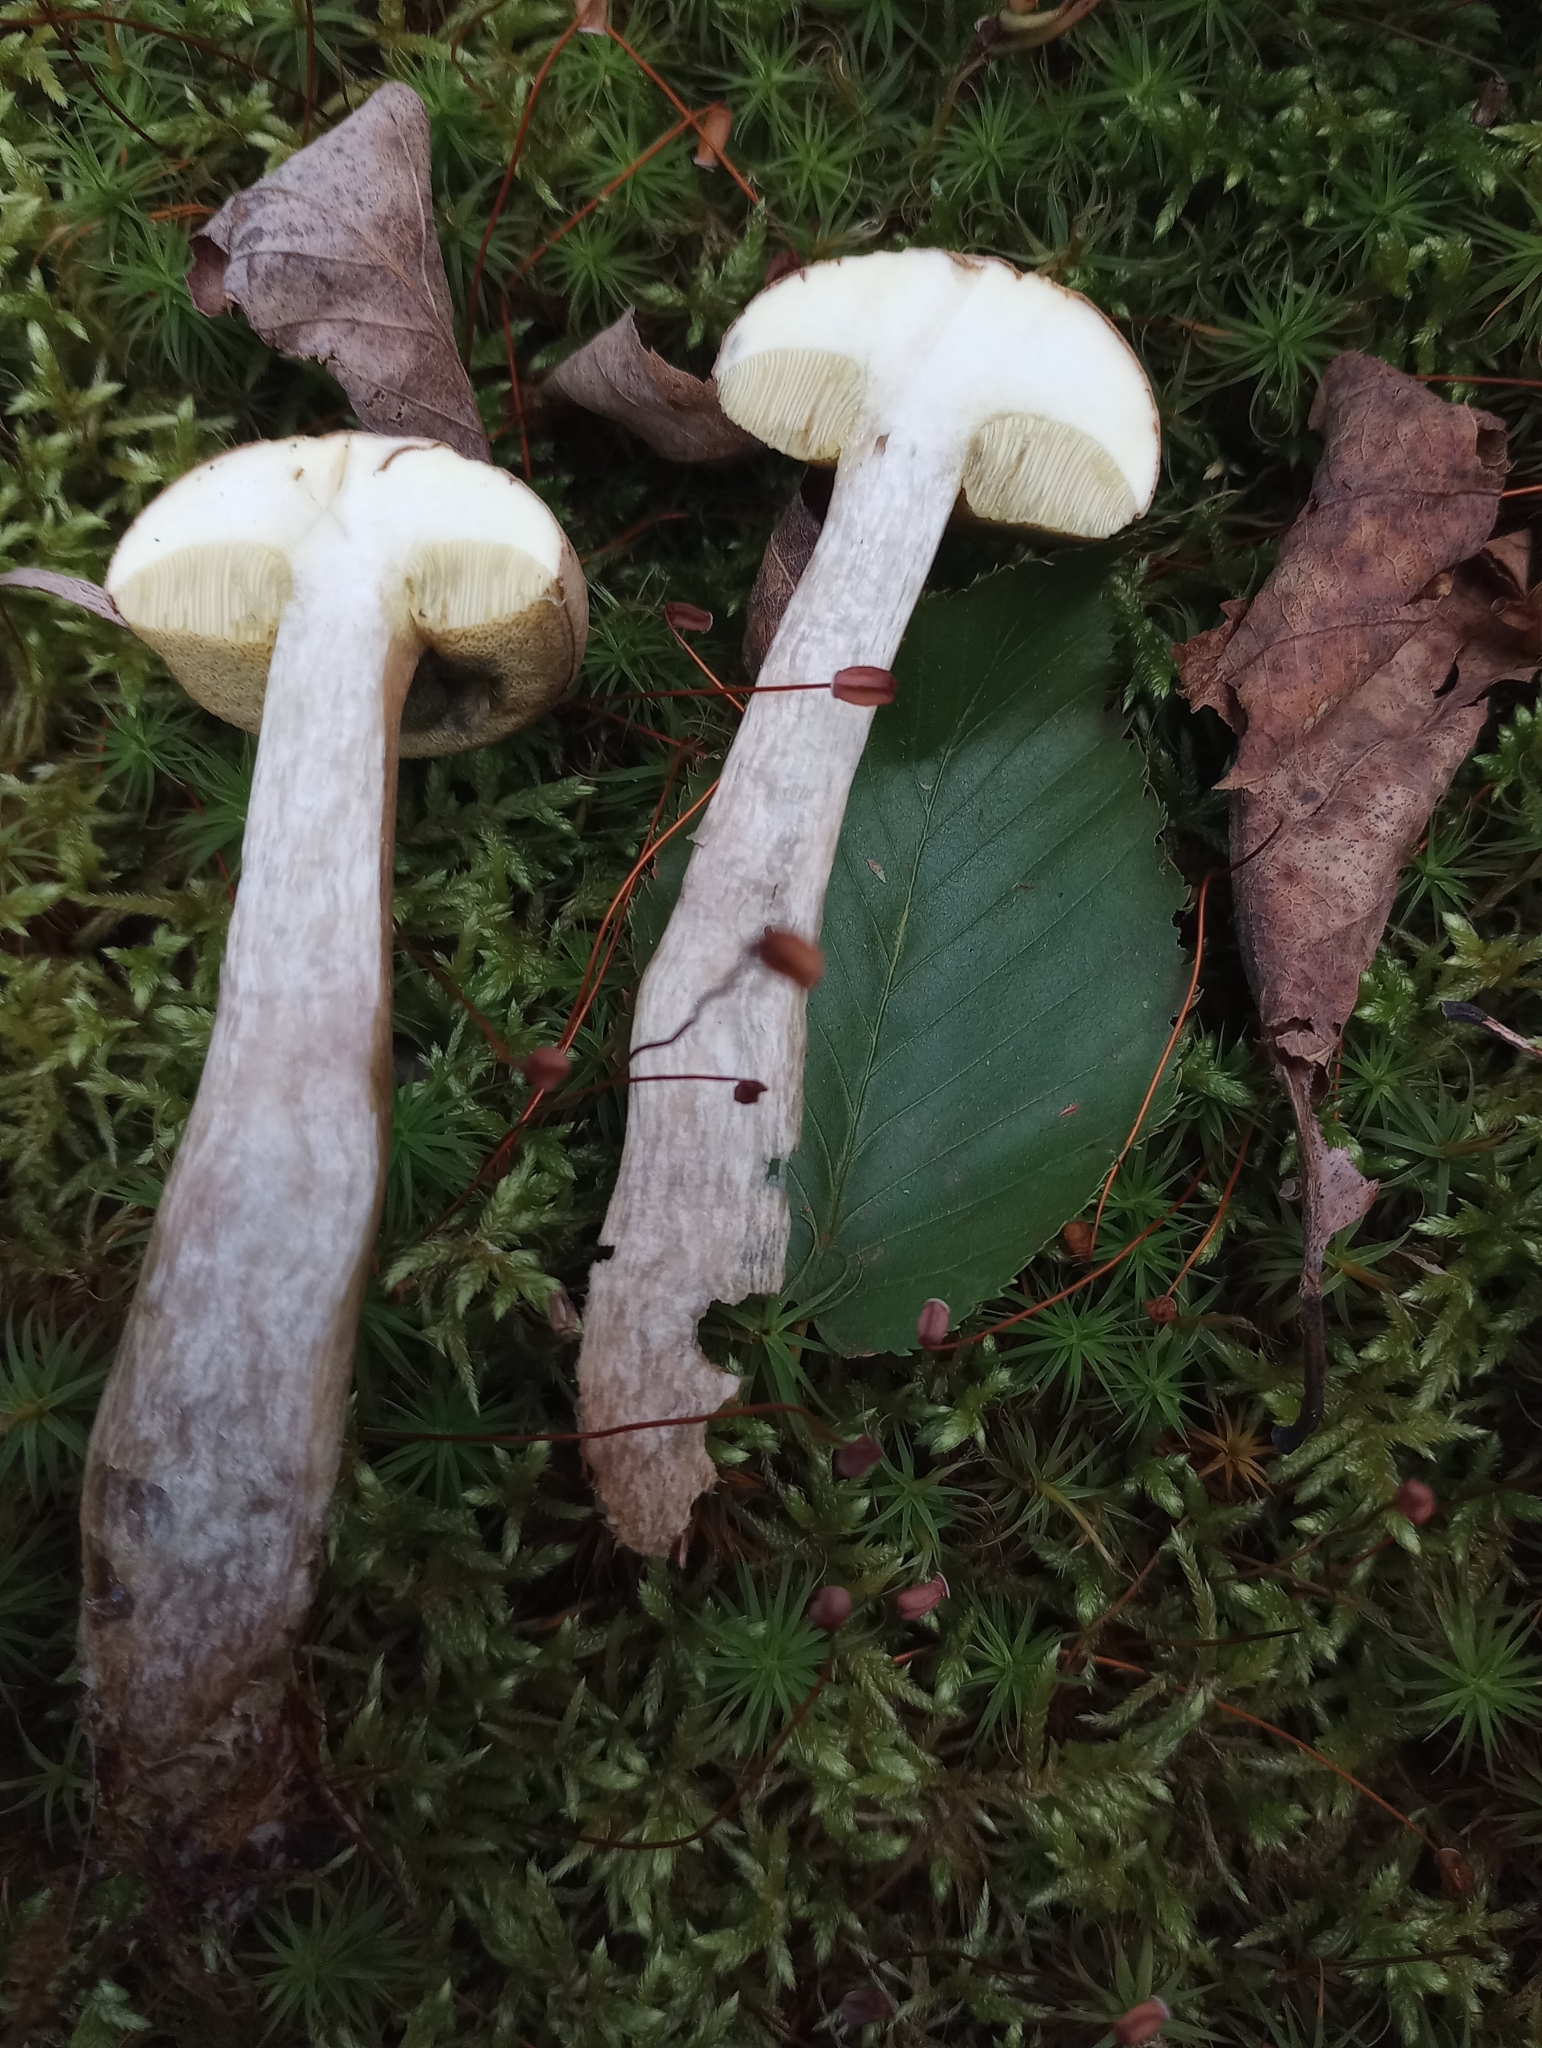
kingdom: Fungi
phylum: Basidiomycota
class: Agaricomycetes
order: Boletales
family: Boletaceae
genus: Imleria
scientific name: Imleria pallida
